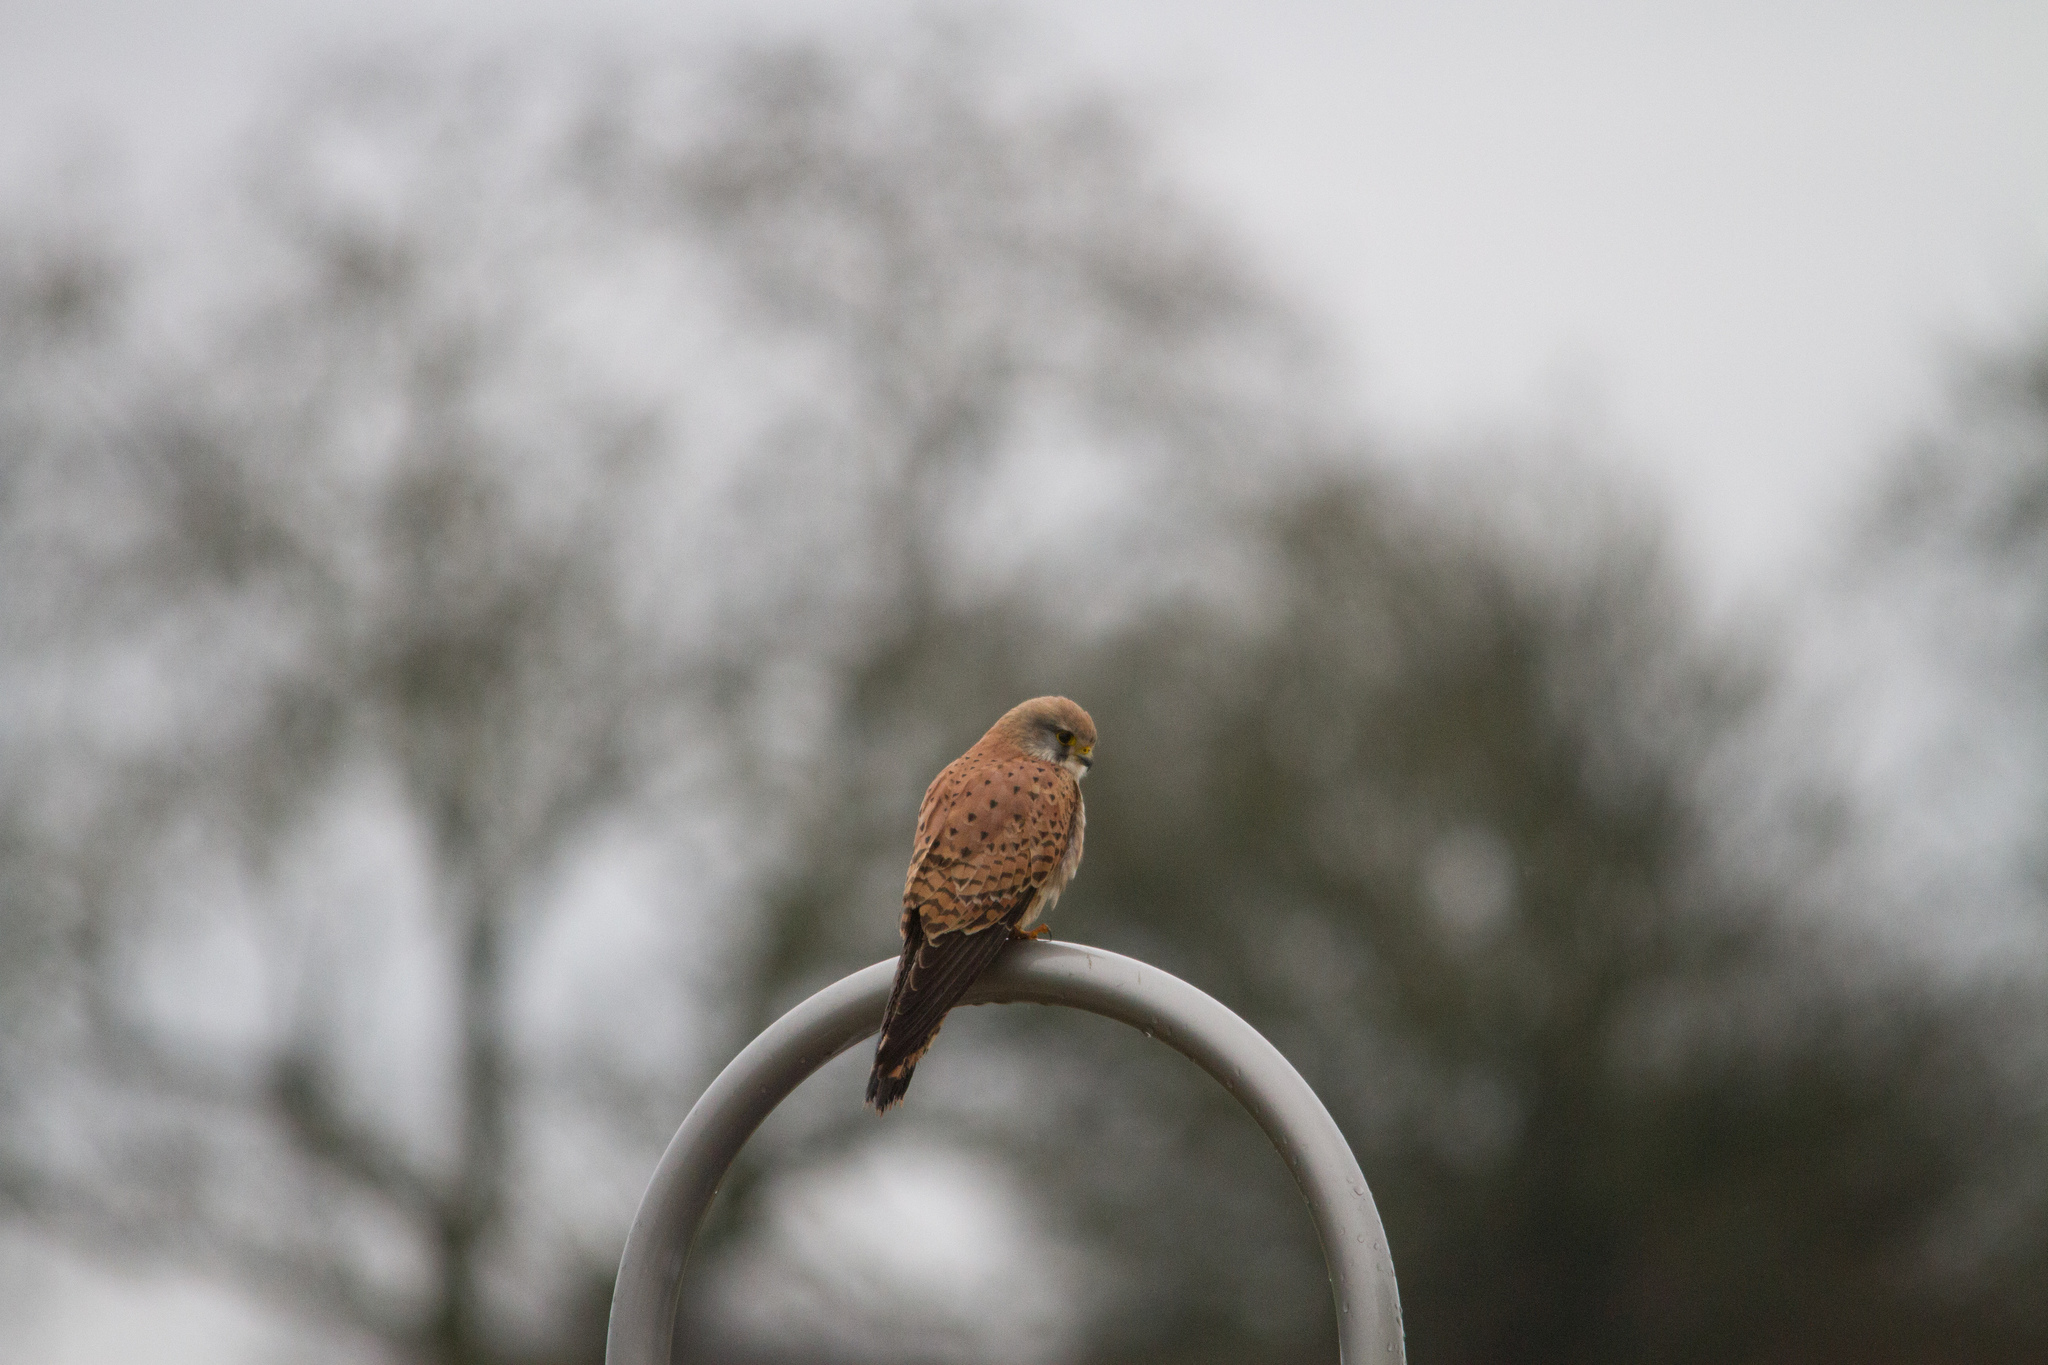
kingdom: Animalia
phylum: Chordata
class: Aves
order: Falconiformes
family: Falconidae
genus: Falco
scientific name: Falco tinnunculus
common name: Common kestrel
